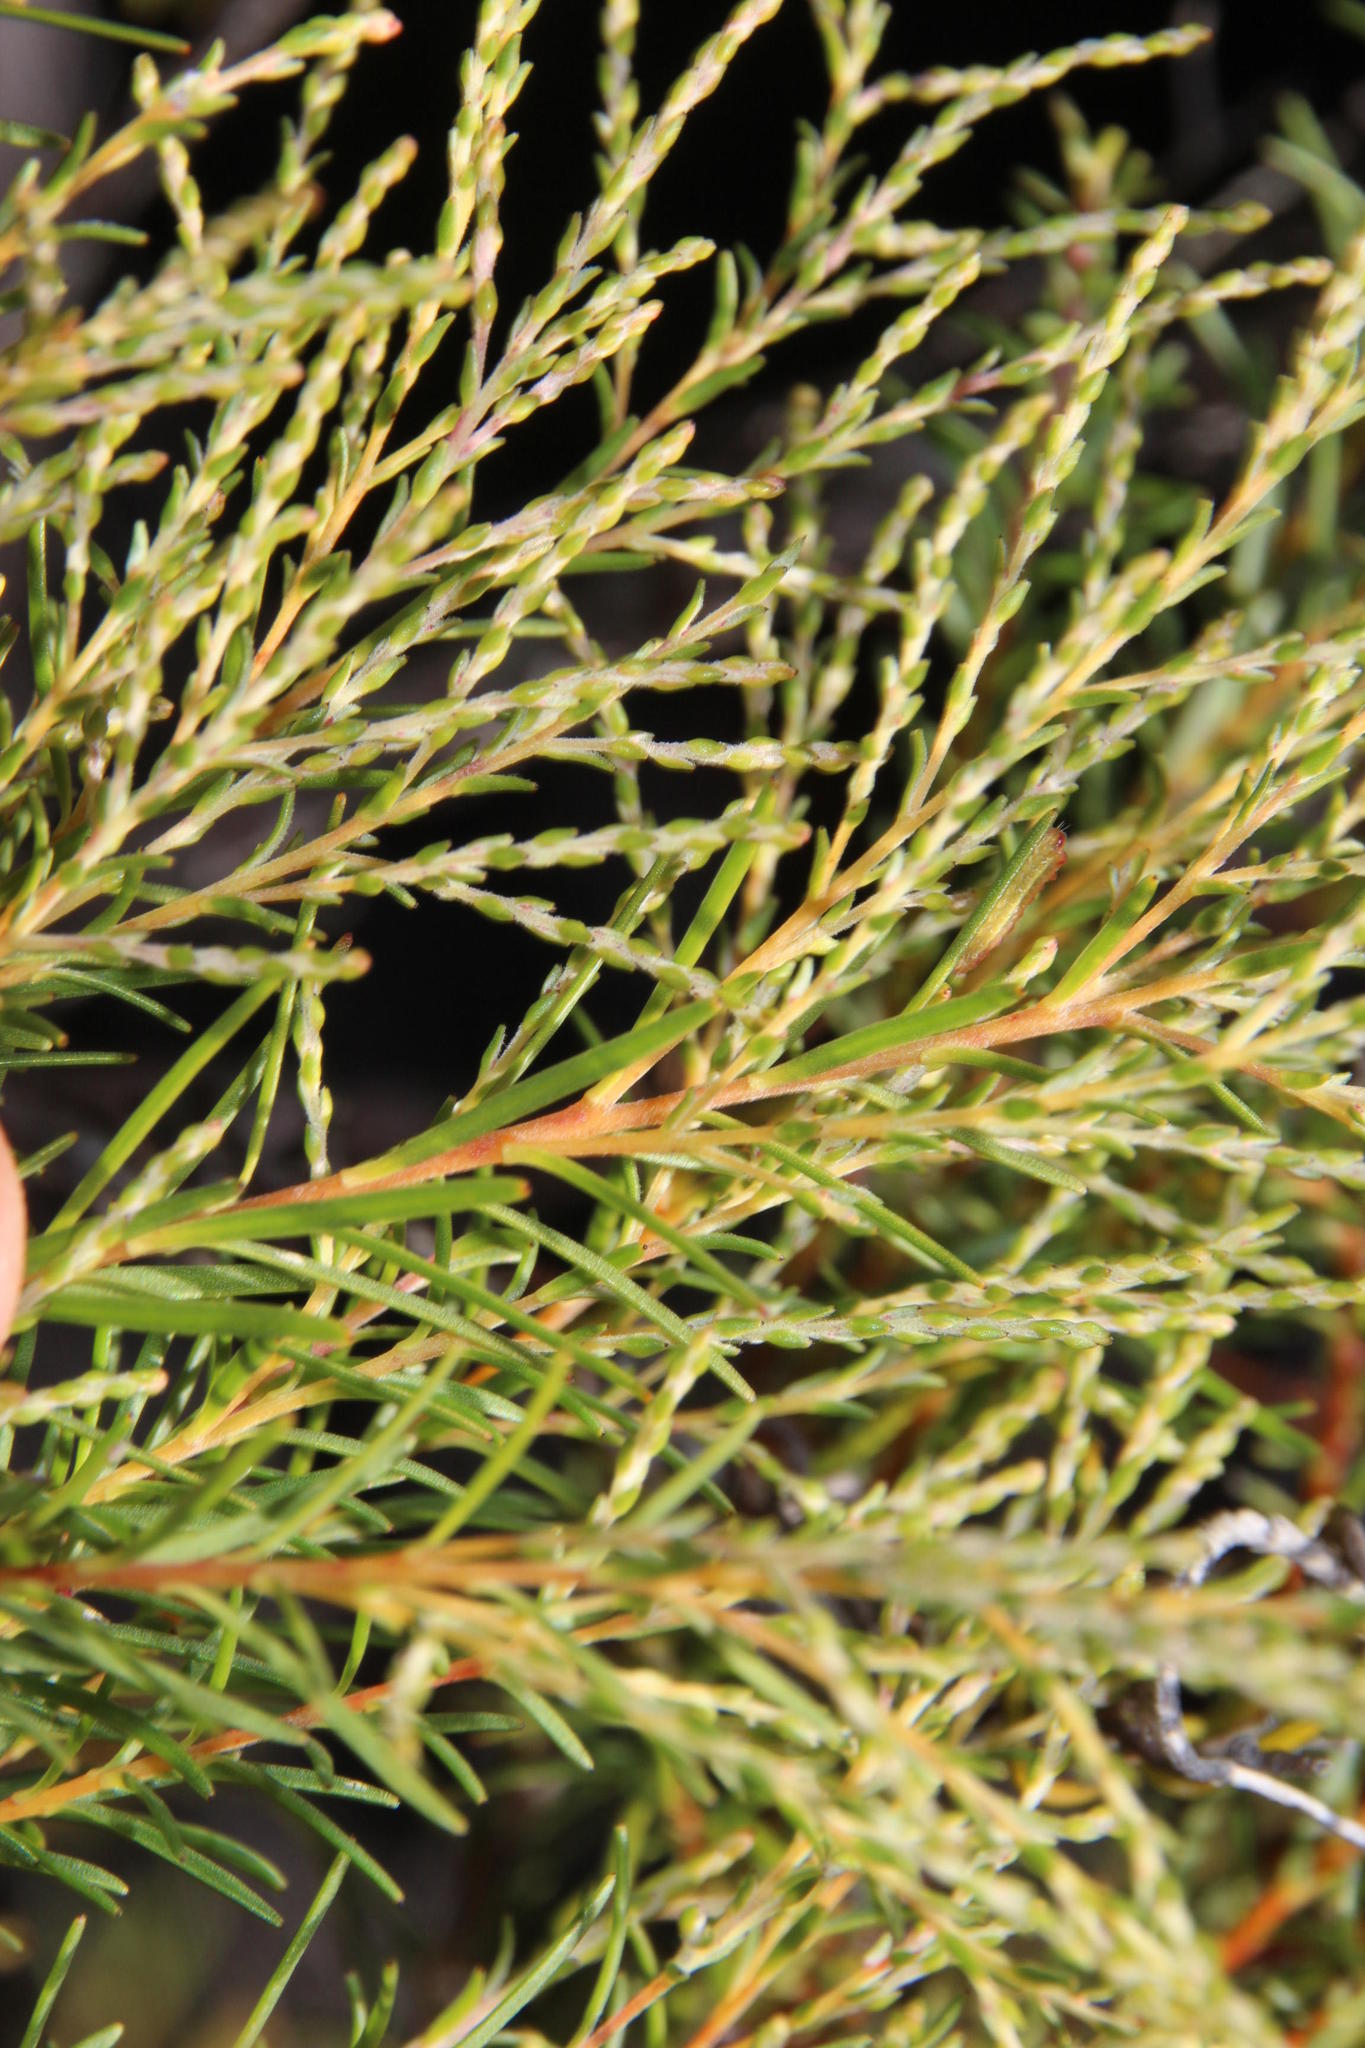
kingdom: Plantae
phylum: Tracheophyta
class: Magnoliopsida
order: Bruniales
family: Bruniaceae
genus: Brunia
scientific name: Brunia africana
